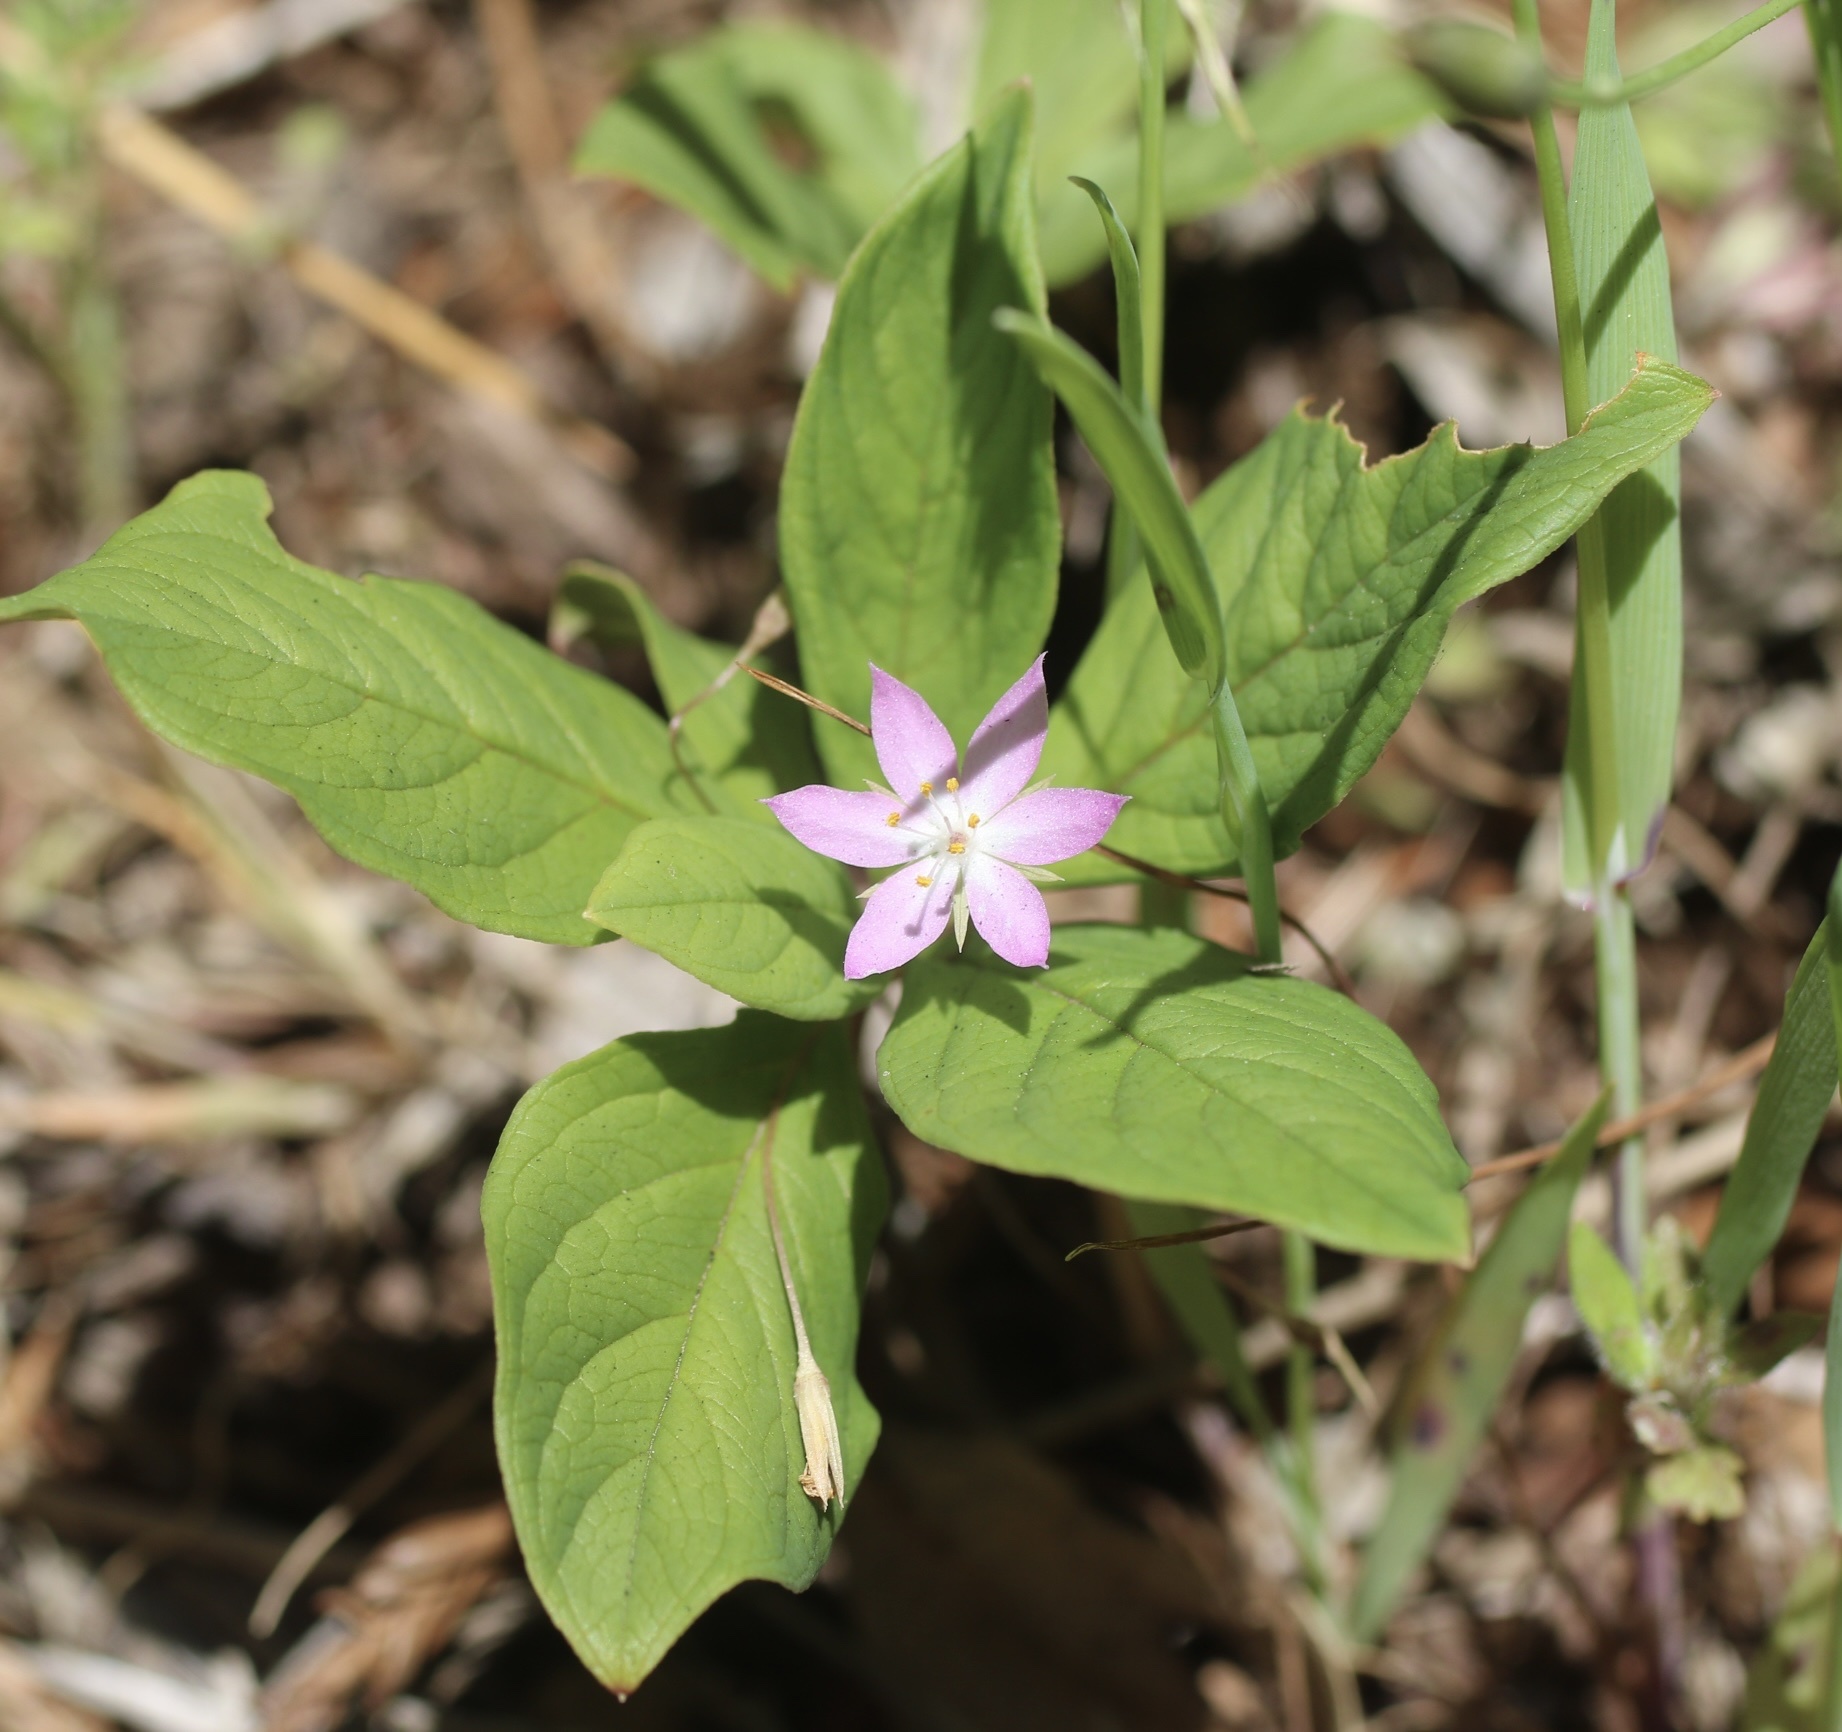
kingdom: Plantae
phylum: Tracheophyta
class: Magnoliopsida
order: Ericales
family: Primulaceae
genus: Lysimachia
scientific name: Lysimachia latifolia
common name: Pacific starflower
